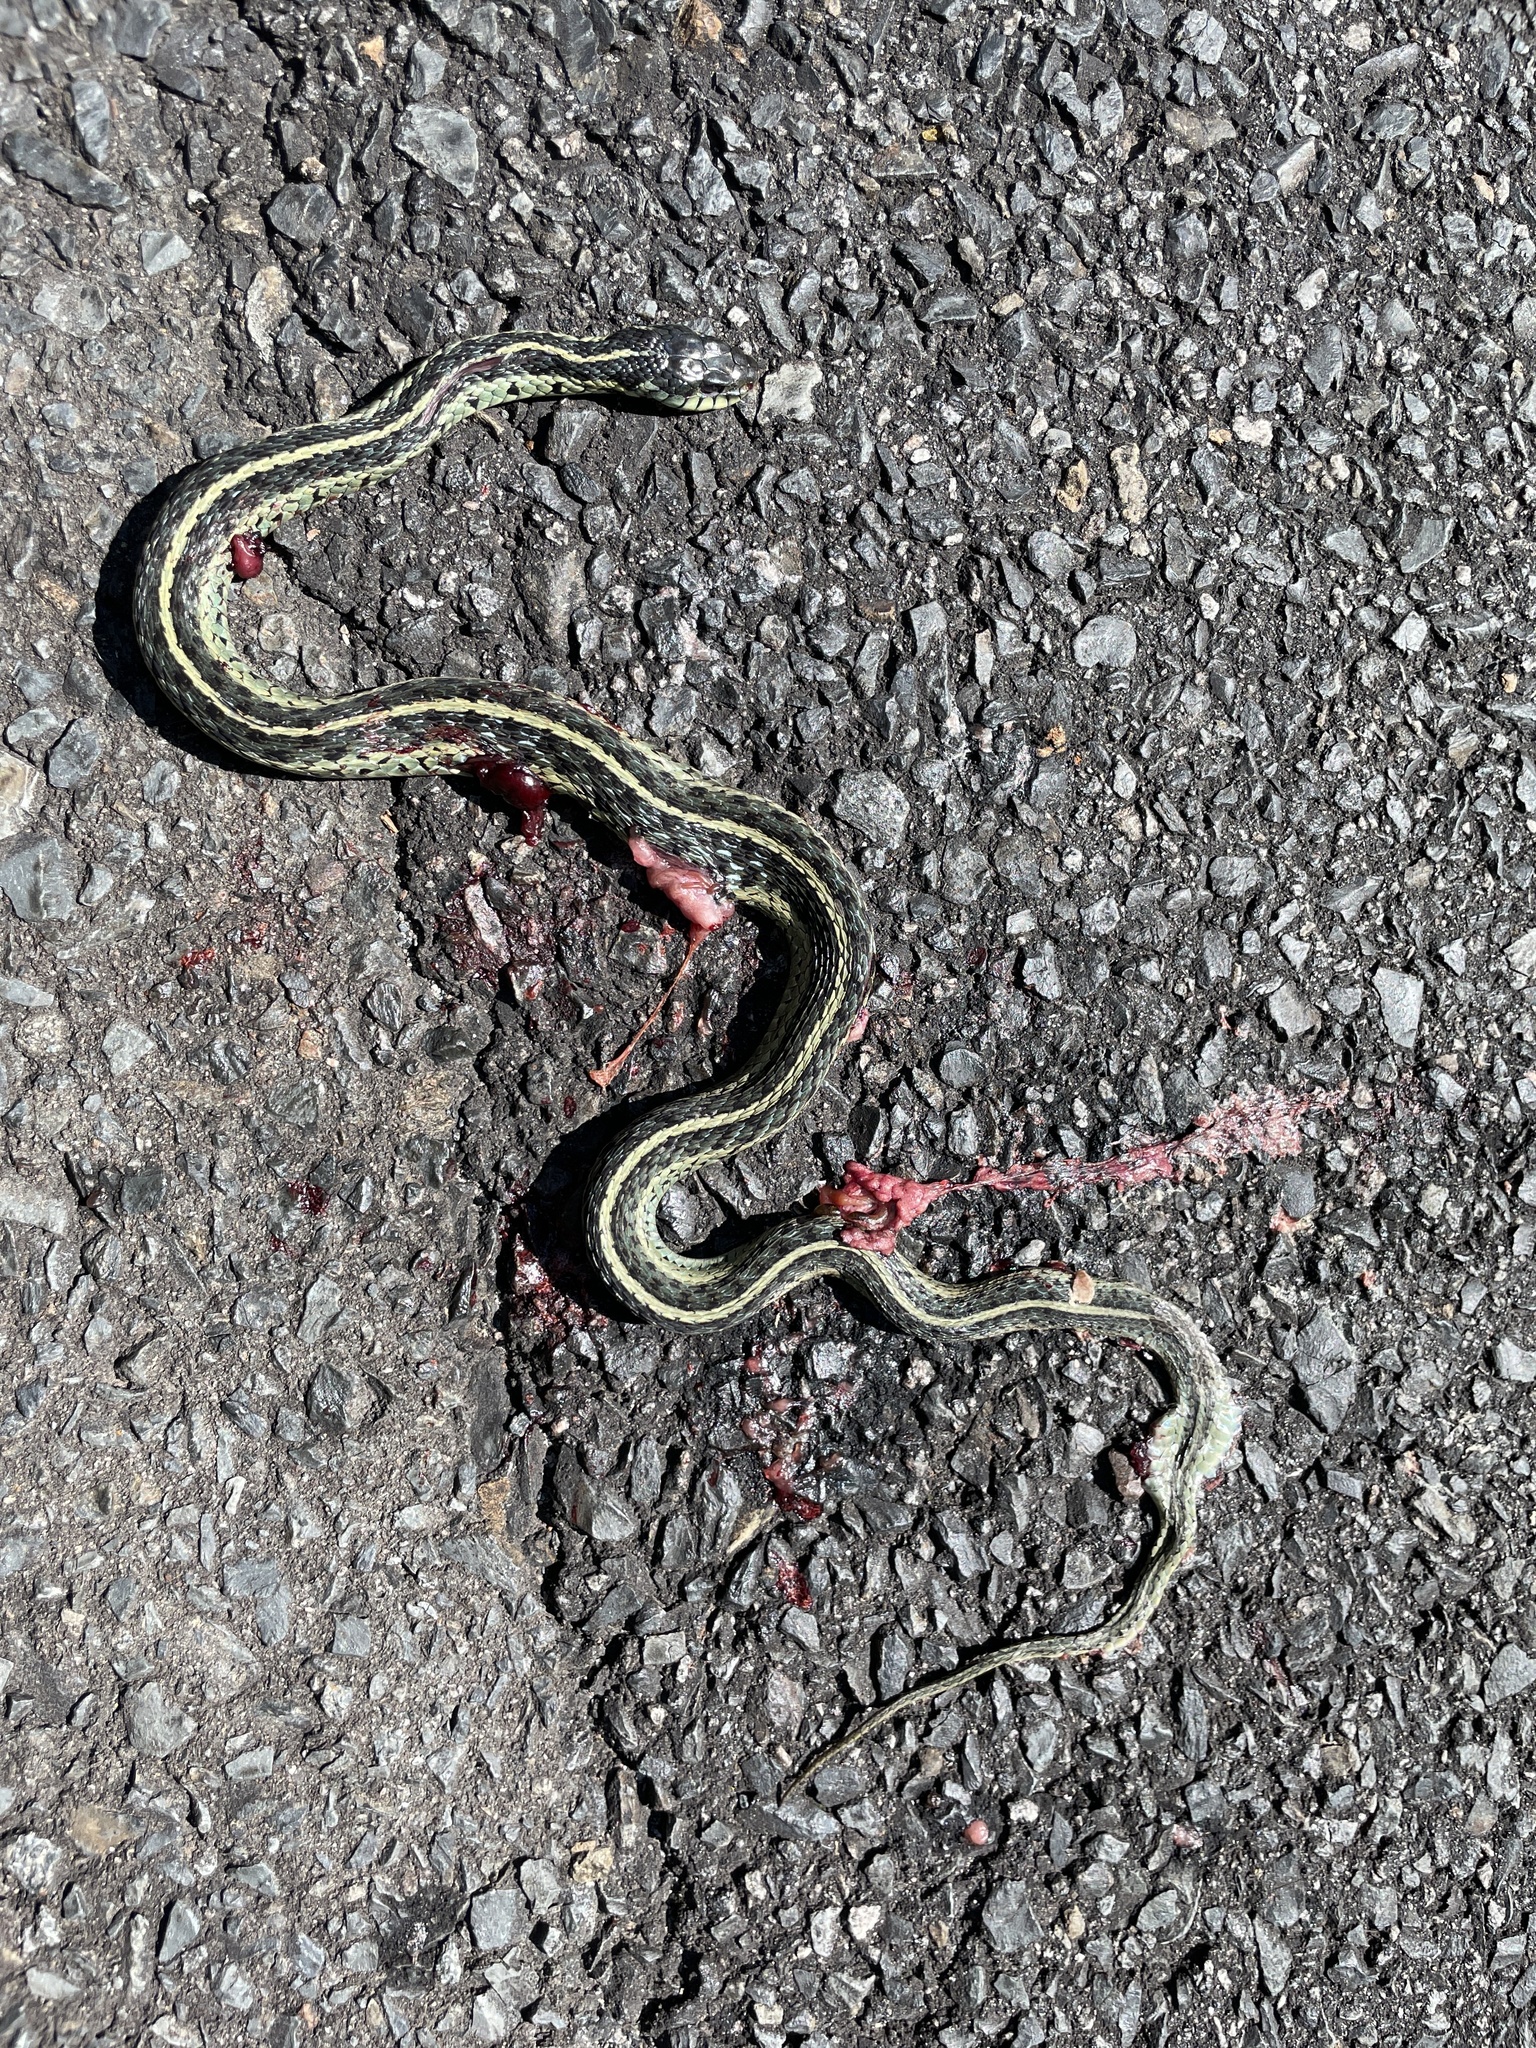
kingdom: Animalia
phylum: Chordata
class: Squamata
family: Colubridae
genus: Thamnophis
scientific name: Thamnophis sirtalis
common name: Common garter snake
